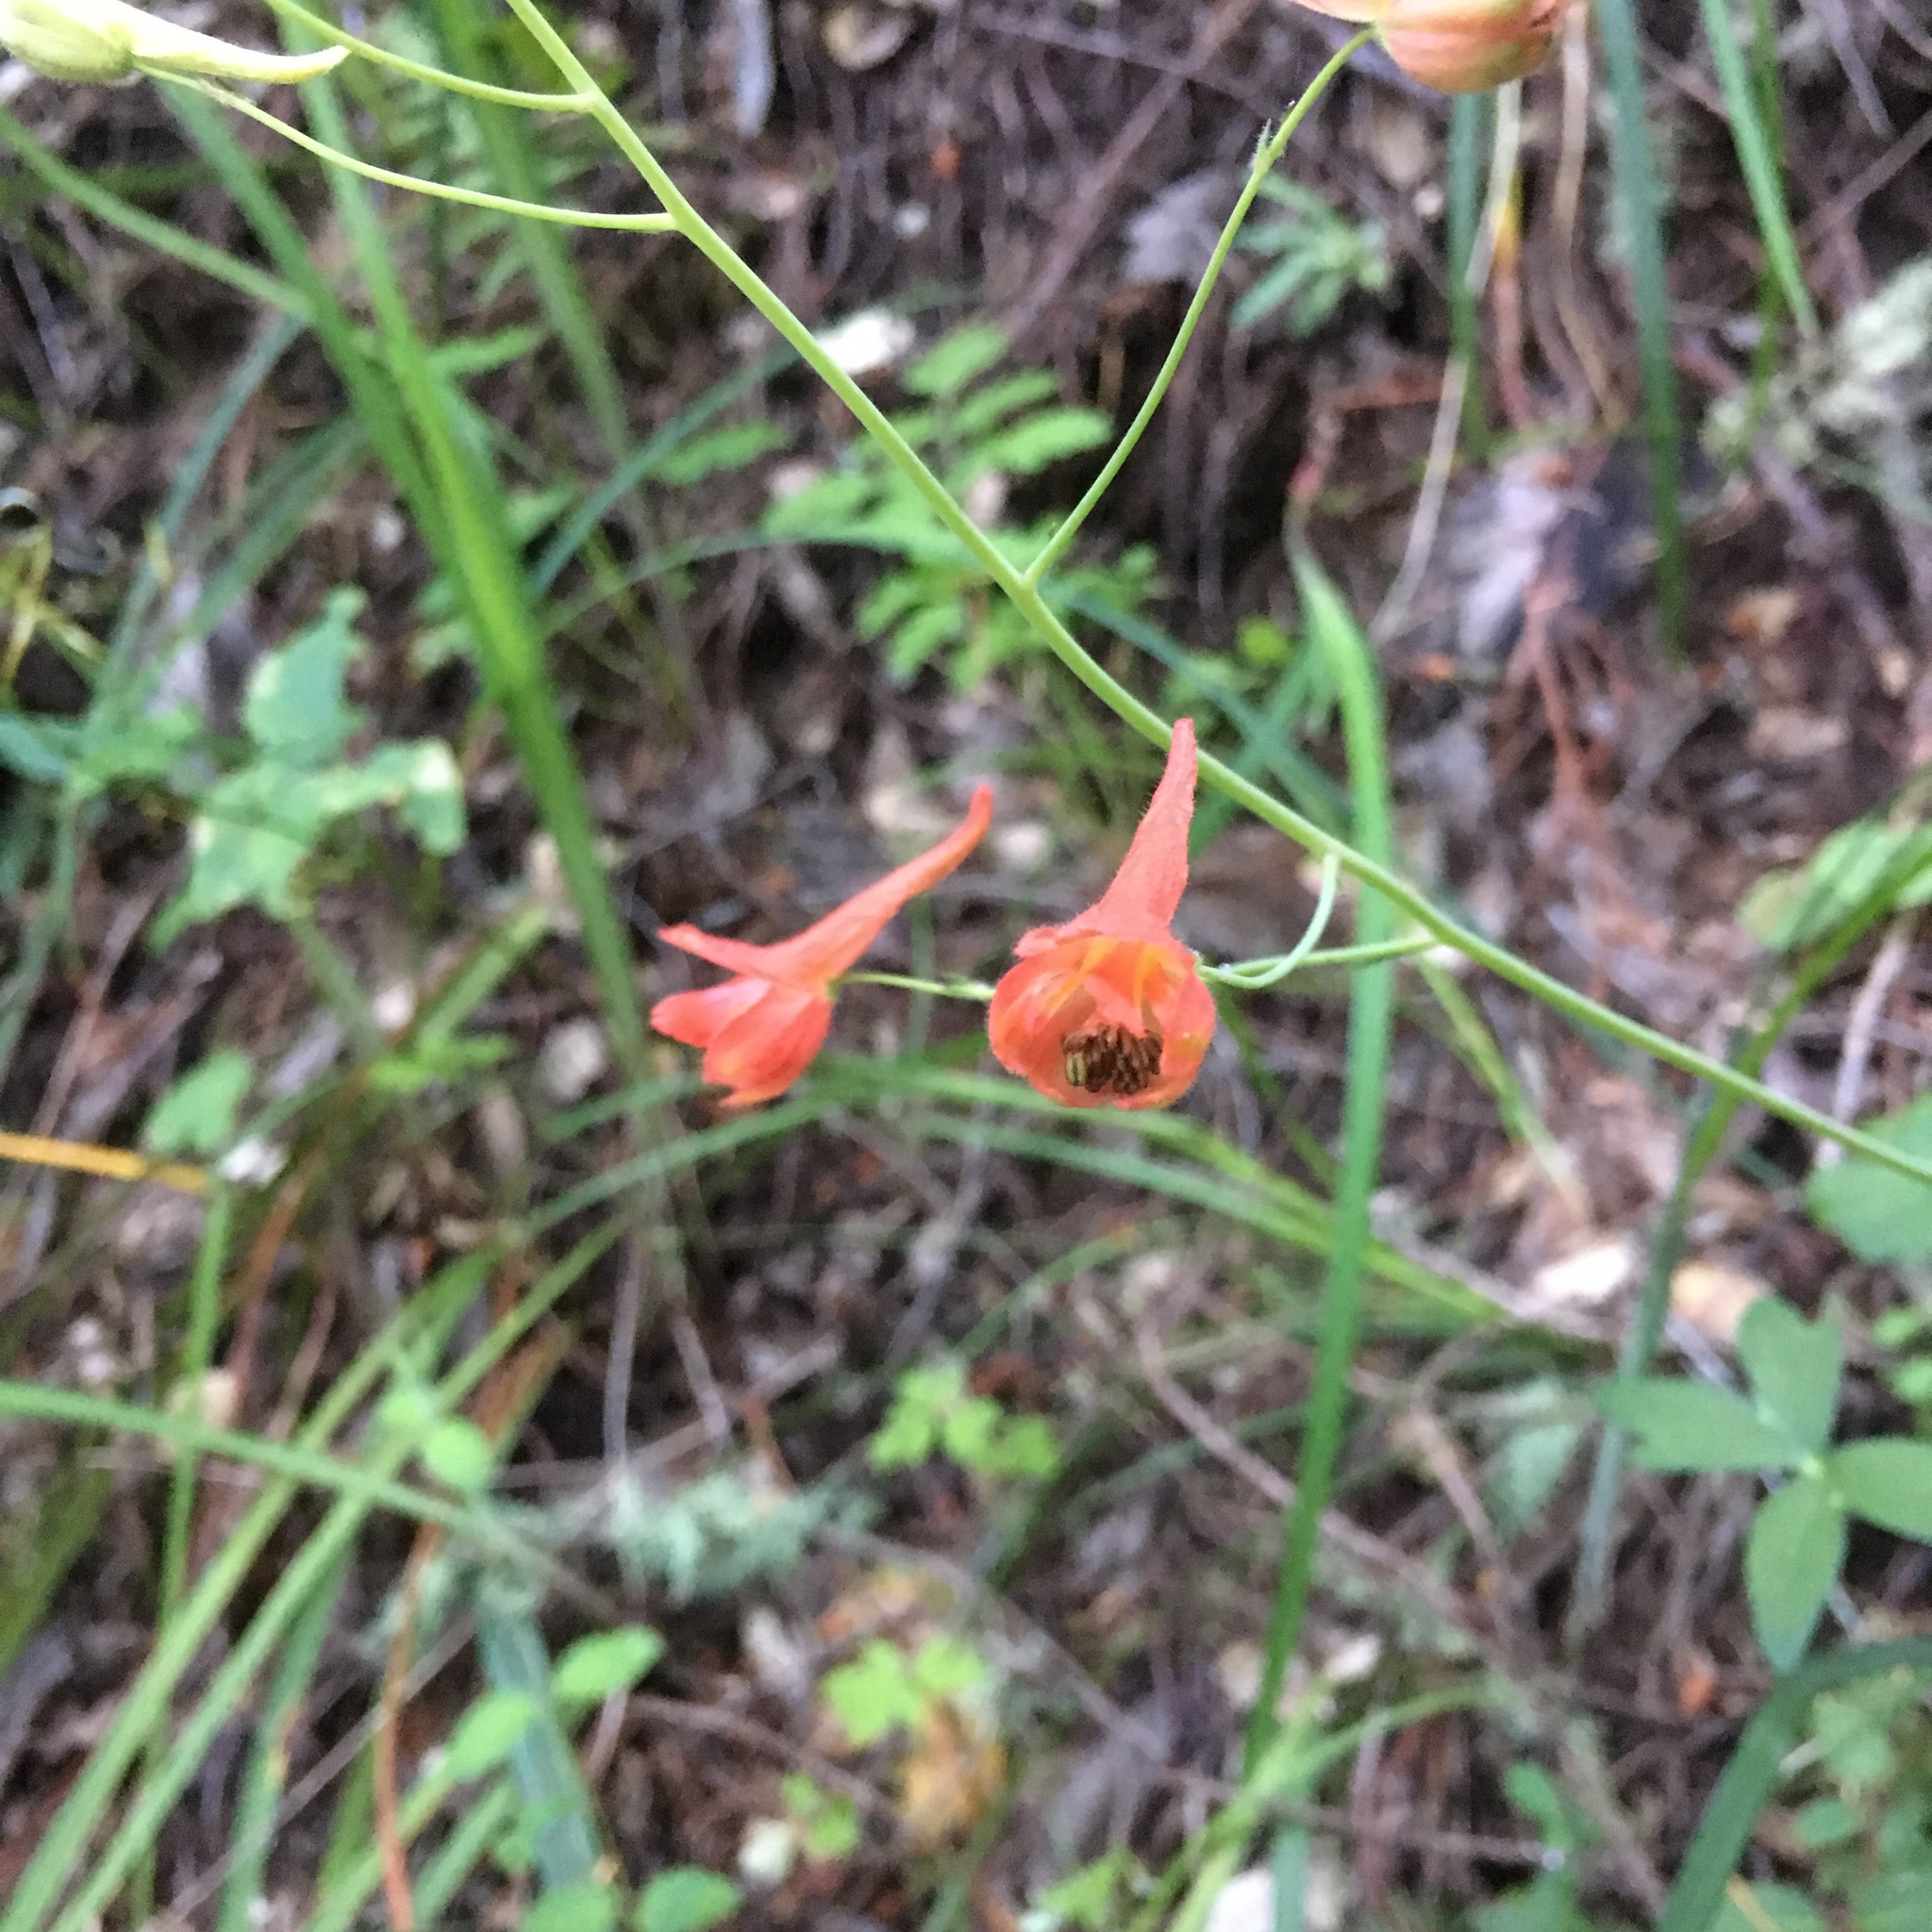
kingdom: Plantae
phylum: Tracheophyta
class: Magnoliopsida
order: Ranunculales
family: Ranunculaceae
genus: Delphinium
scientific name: Delphinium nudicaule
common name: Red larkspur
